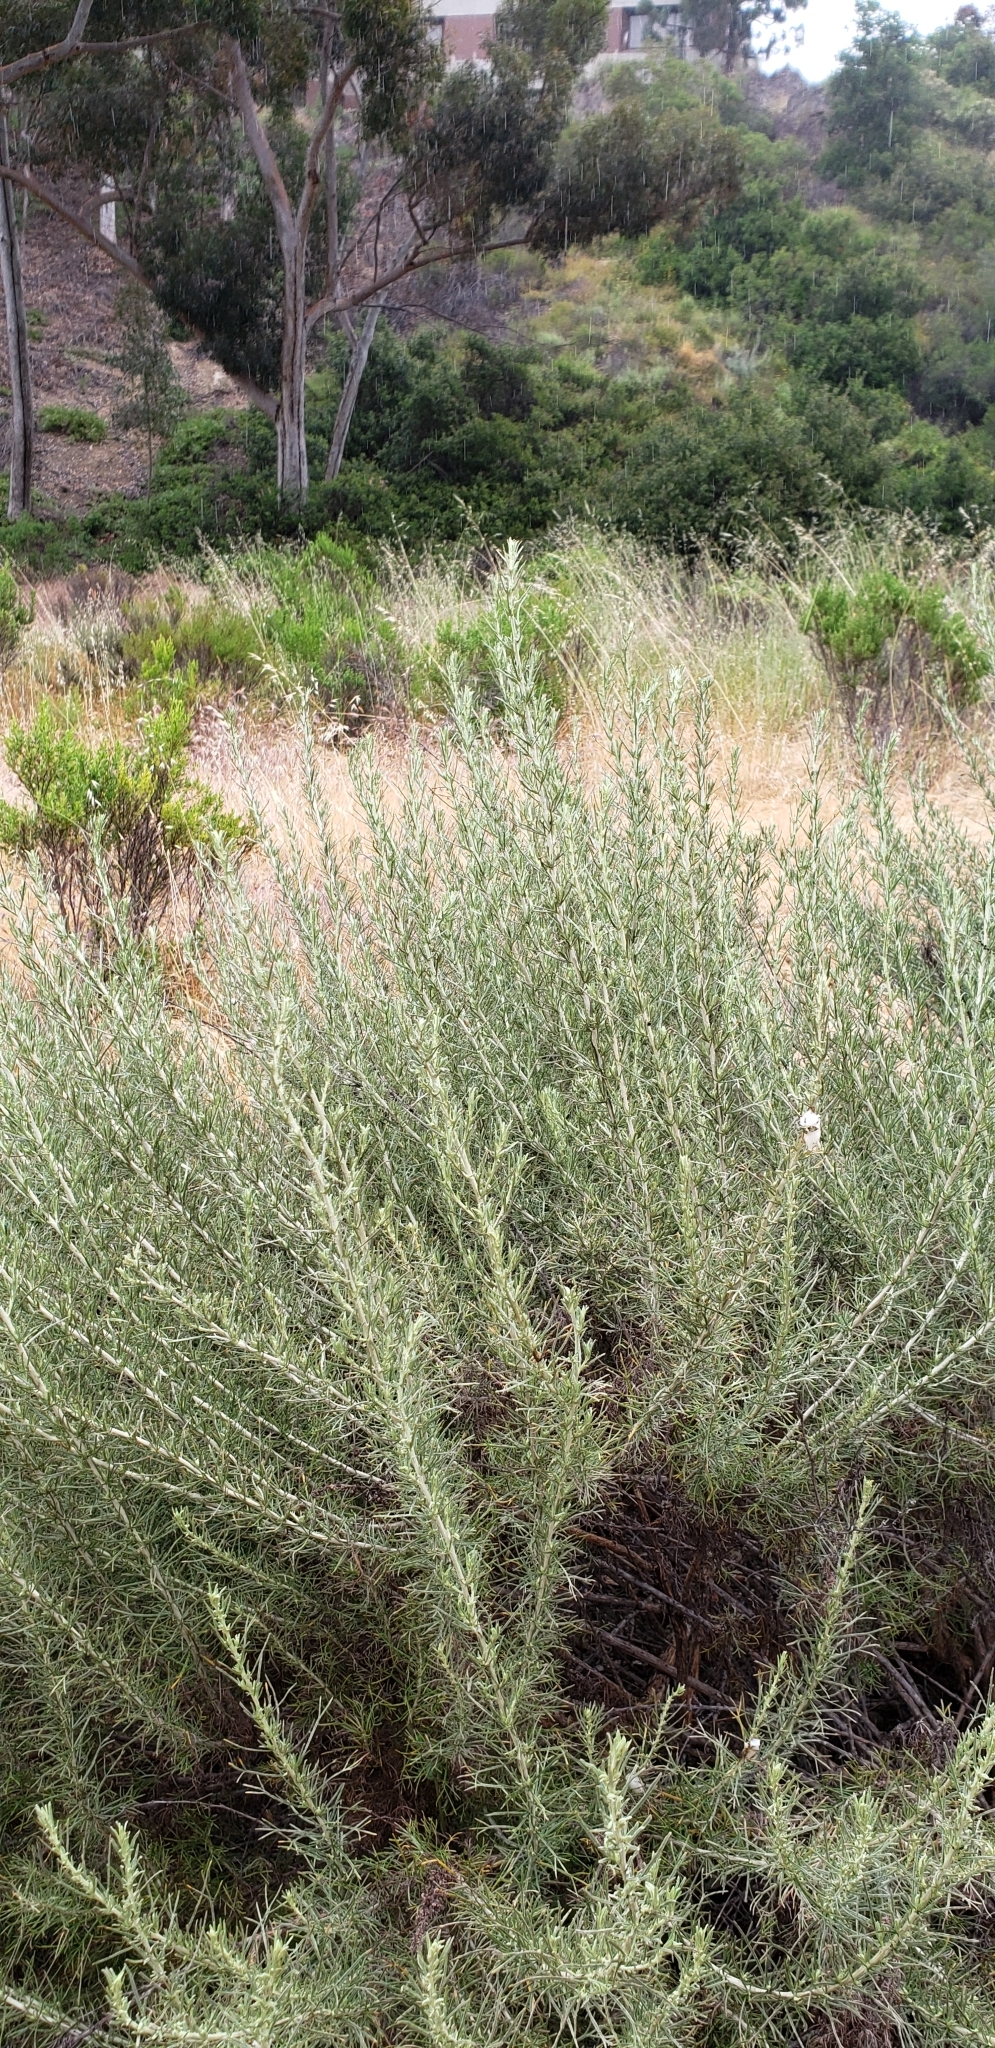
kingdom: Plantae
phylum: Tracheophyta
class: Magnoliopsida
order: Asterales
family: Asteraceae
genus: Artemisia
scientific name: Artemisia californica
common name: California sagebrush
